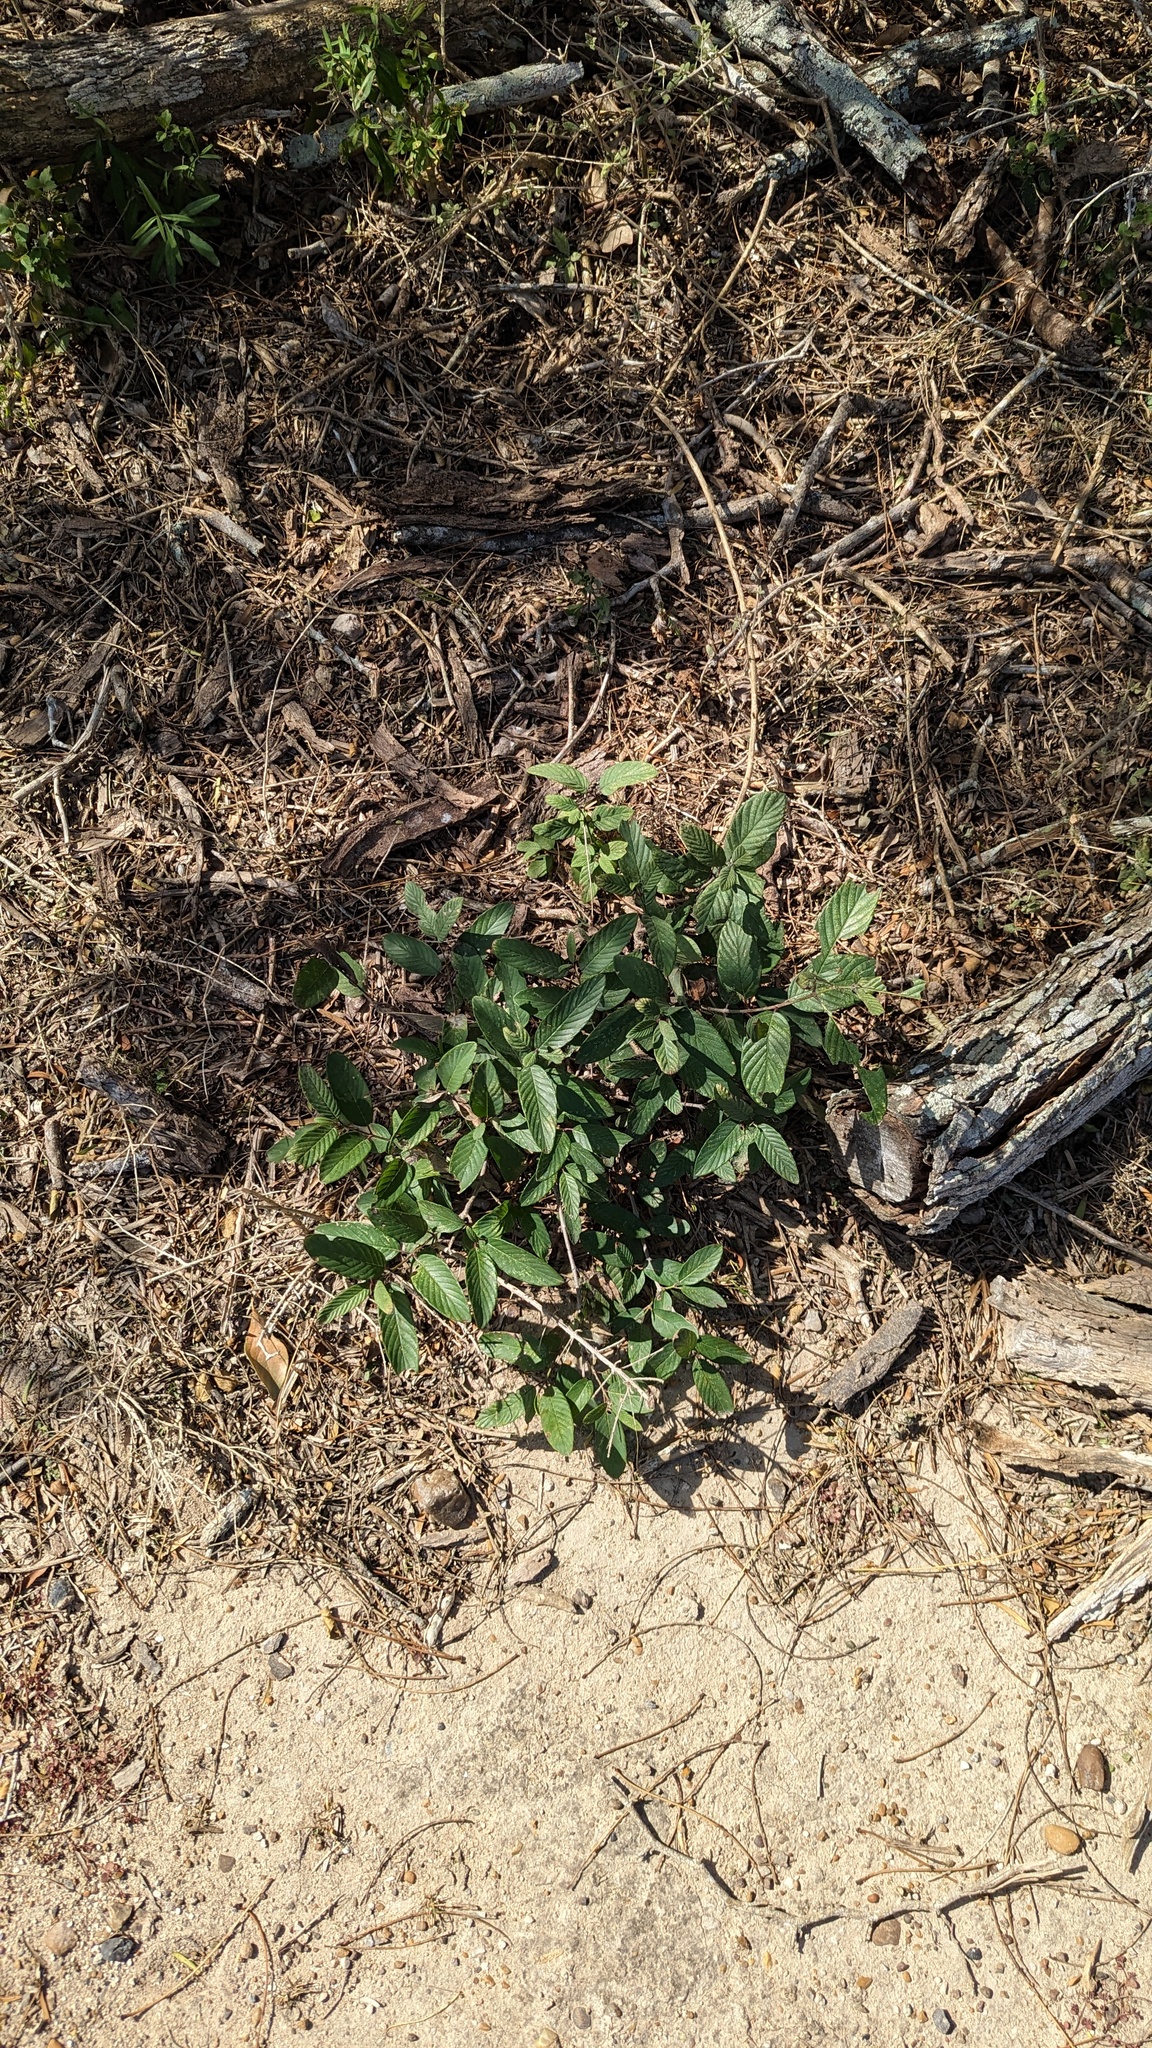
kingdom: Plantae
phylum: Tracheophyta
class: Magnoliopsida
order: Rosales
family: Rhamnaceae
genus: Karwinskia
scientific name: Karwinskia humboldtiana
